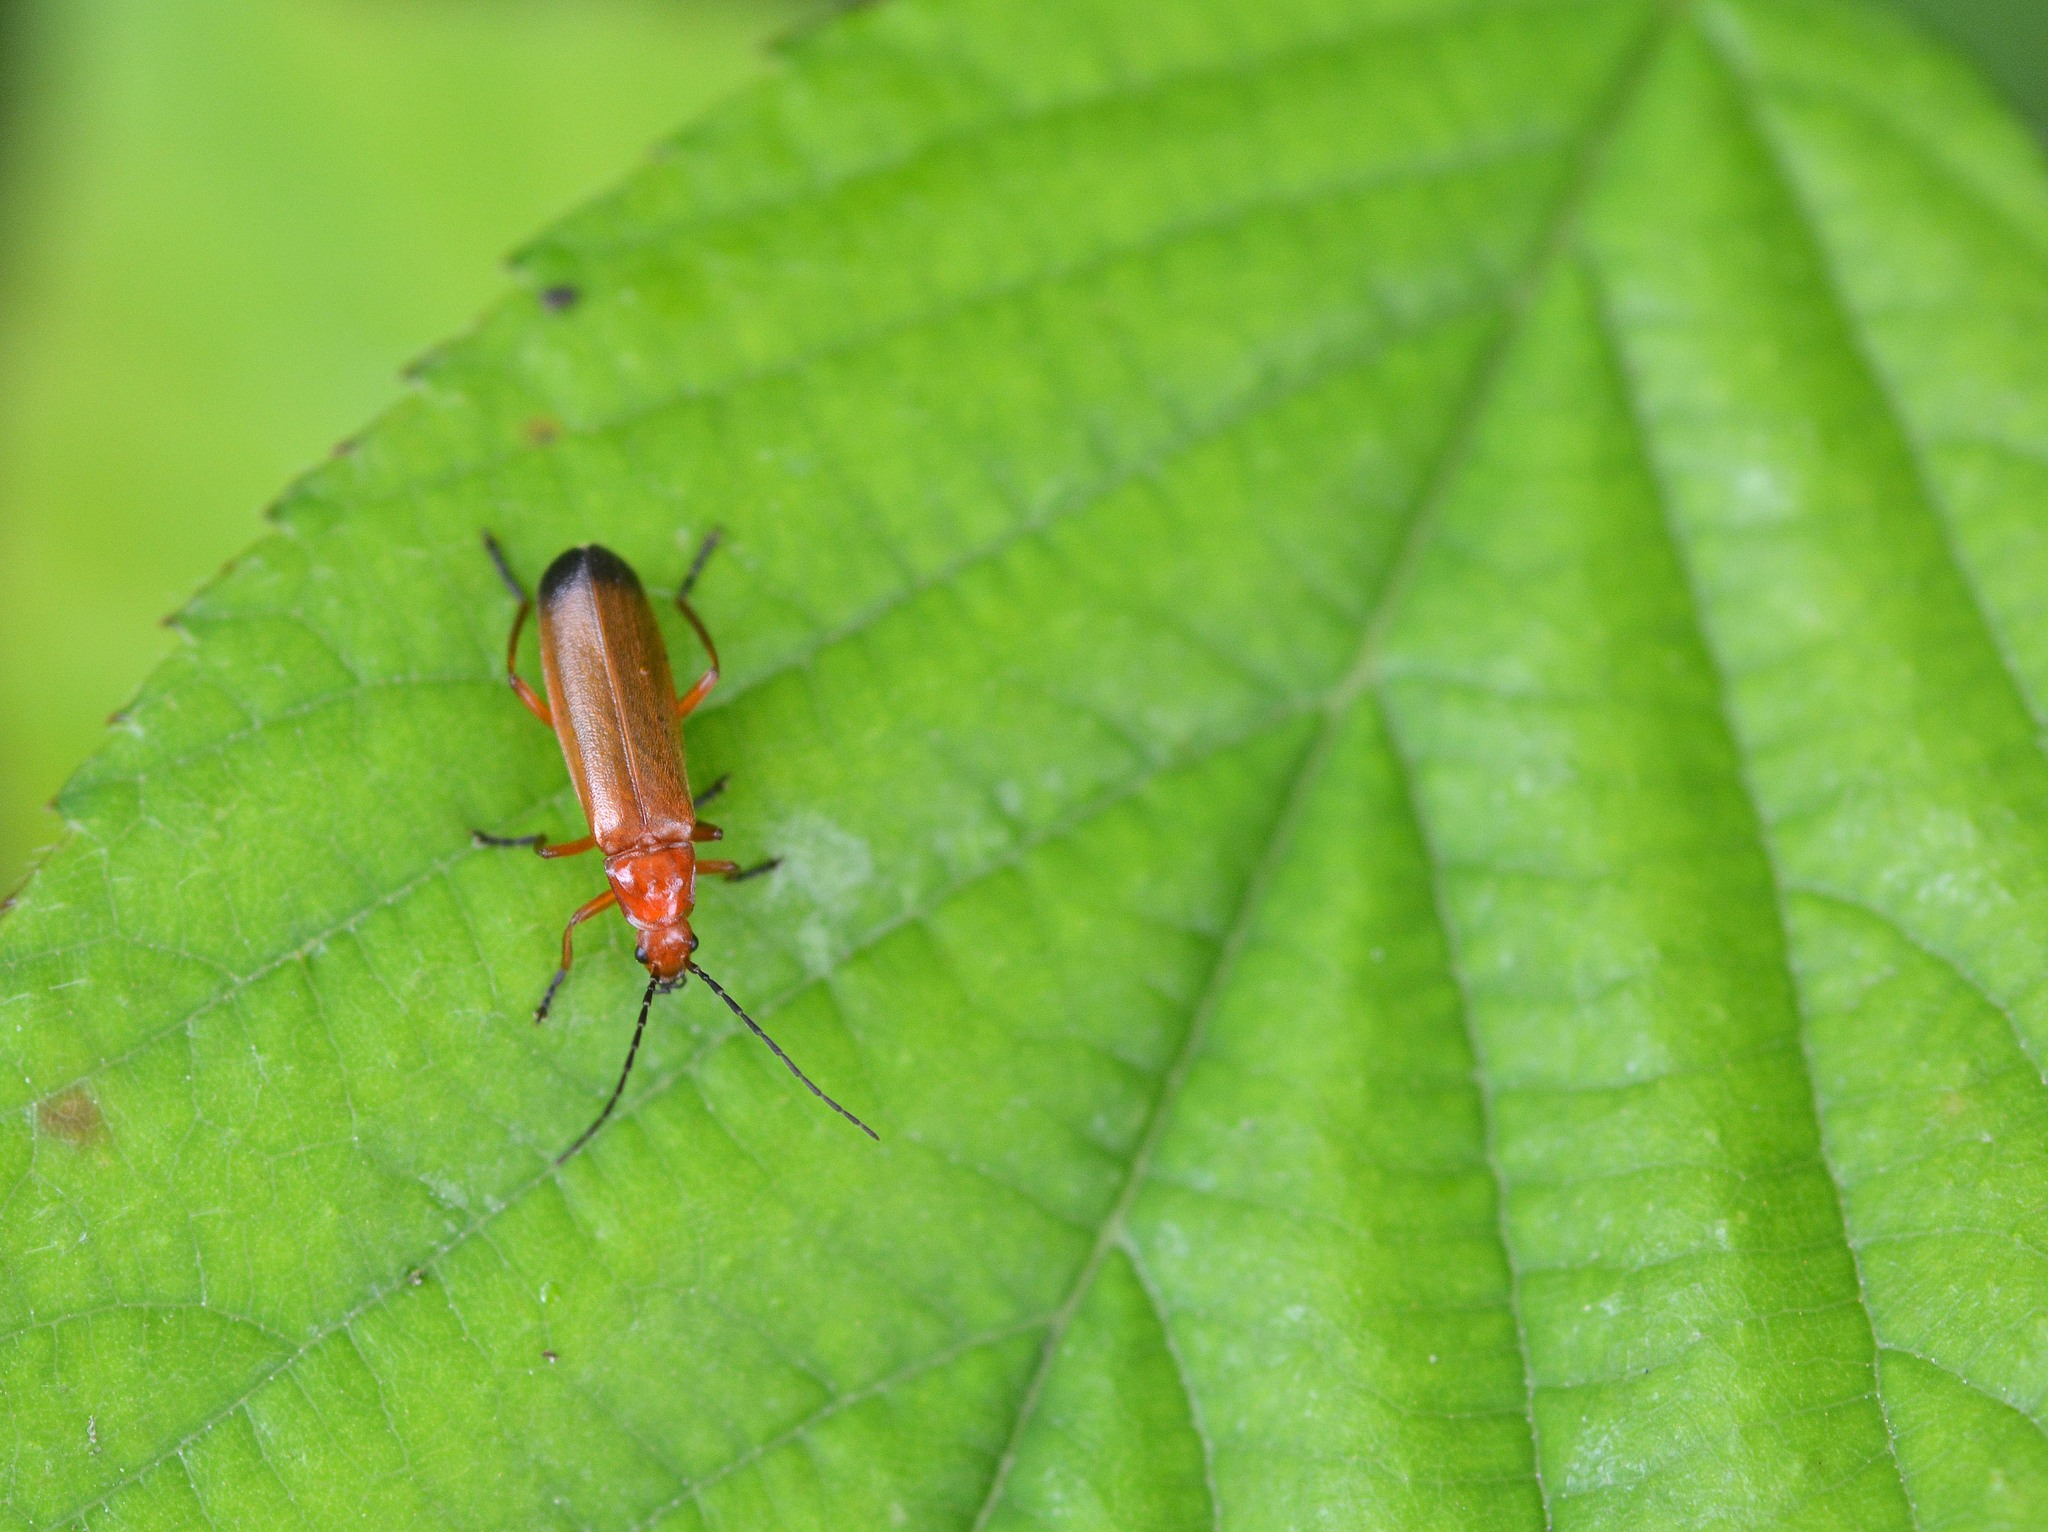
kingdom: Animalia
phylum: Arthropoda
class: Insecta
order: Coleoptera
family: Cantharidae
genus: Rhagonycha
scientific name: Rhagonycha fulva
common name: Common red soldier beetle
